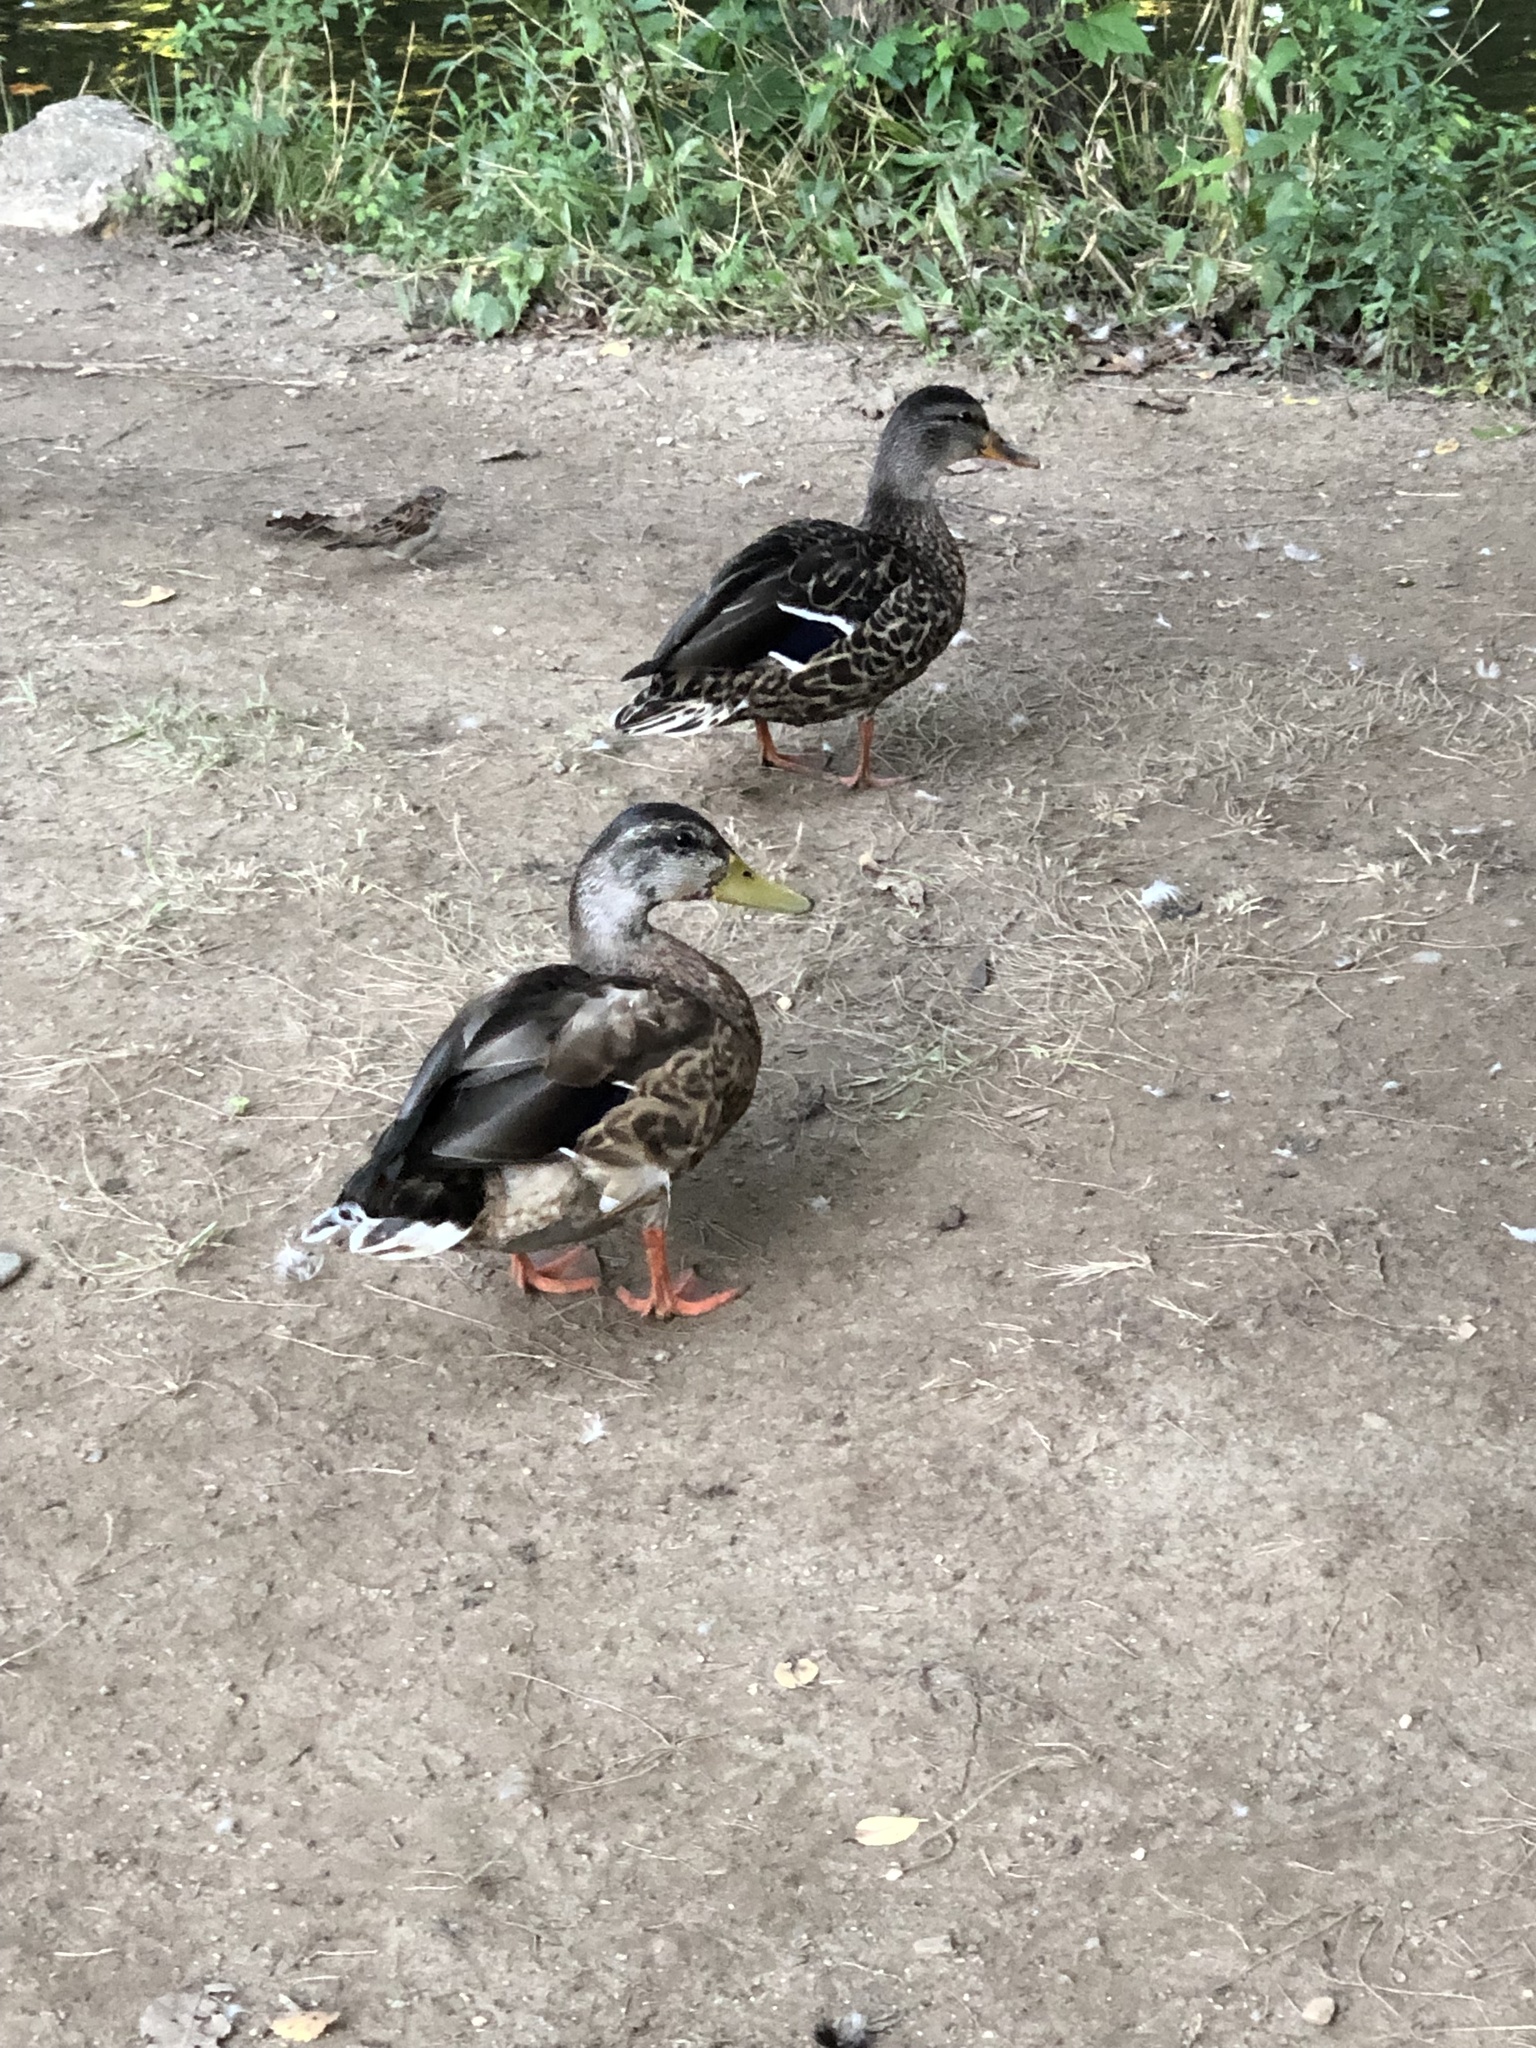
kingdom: Animalia
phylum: Chordata
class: Aves
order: Anseriformes
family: Anatidae
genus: Anas
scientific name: Anas platyrhynchos
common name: Mallard
